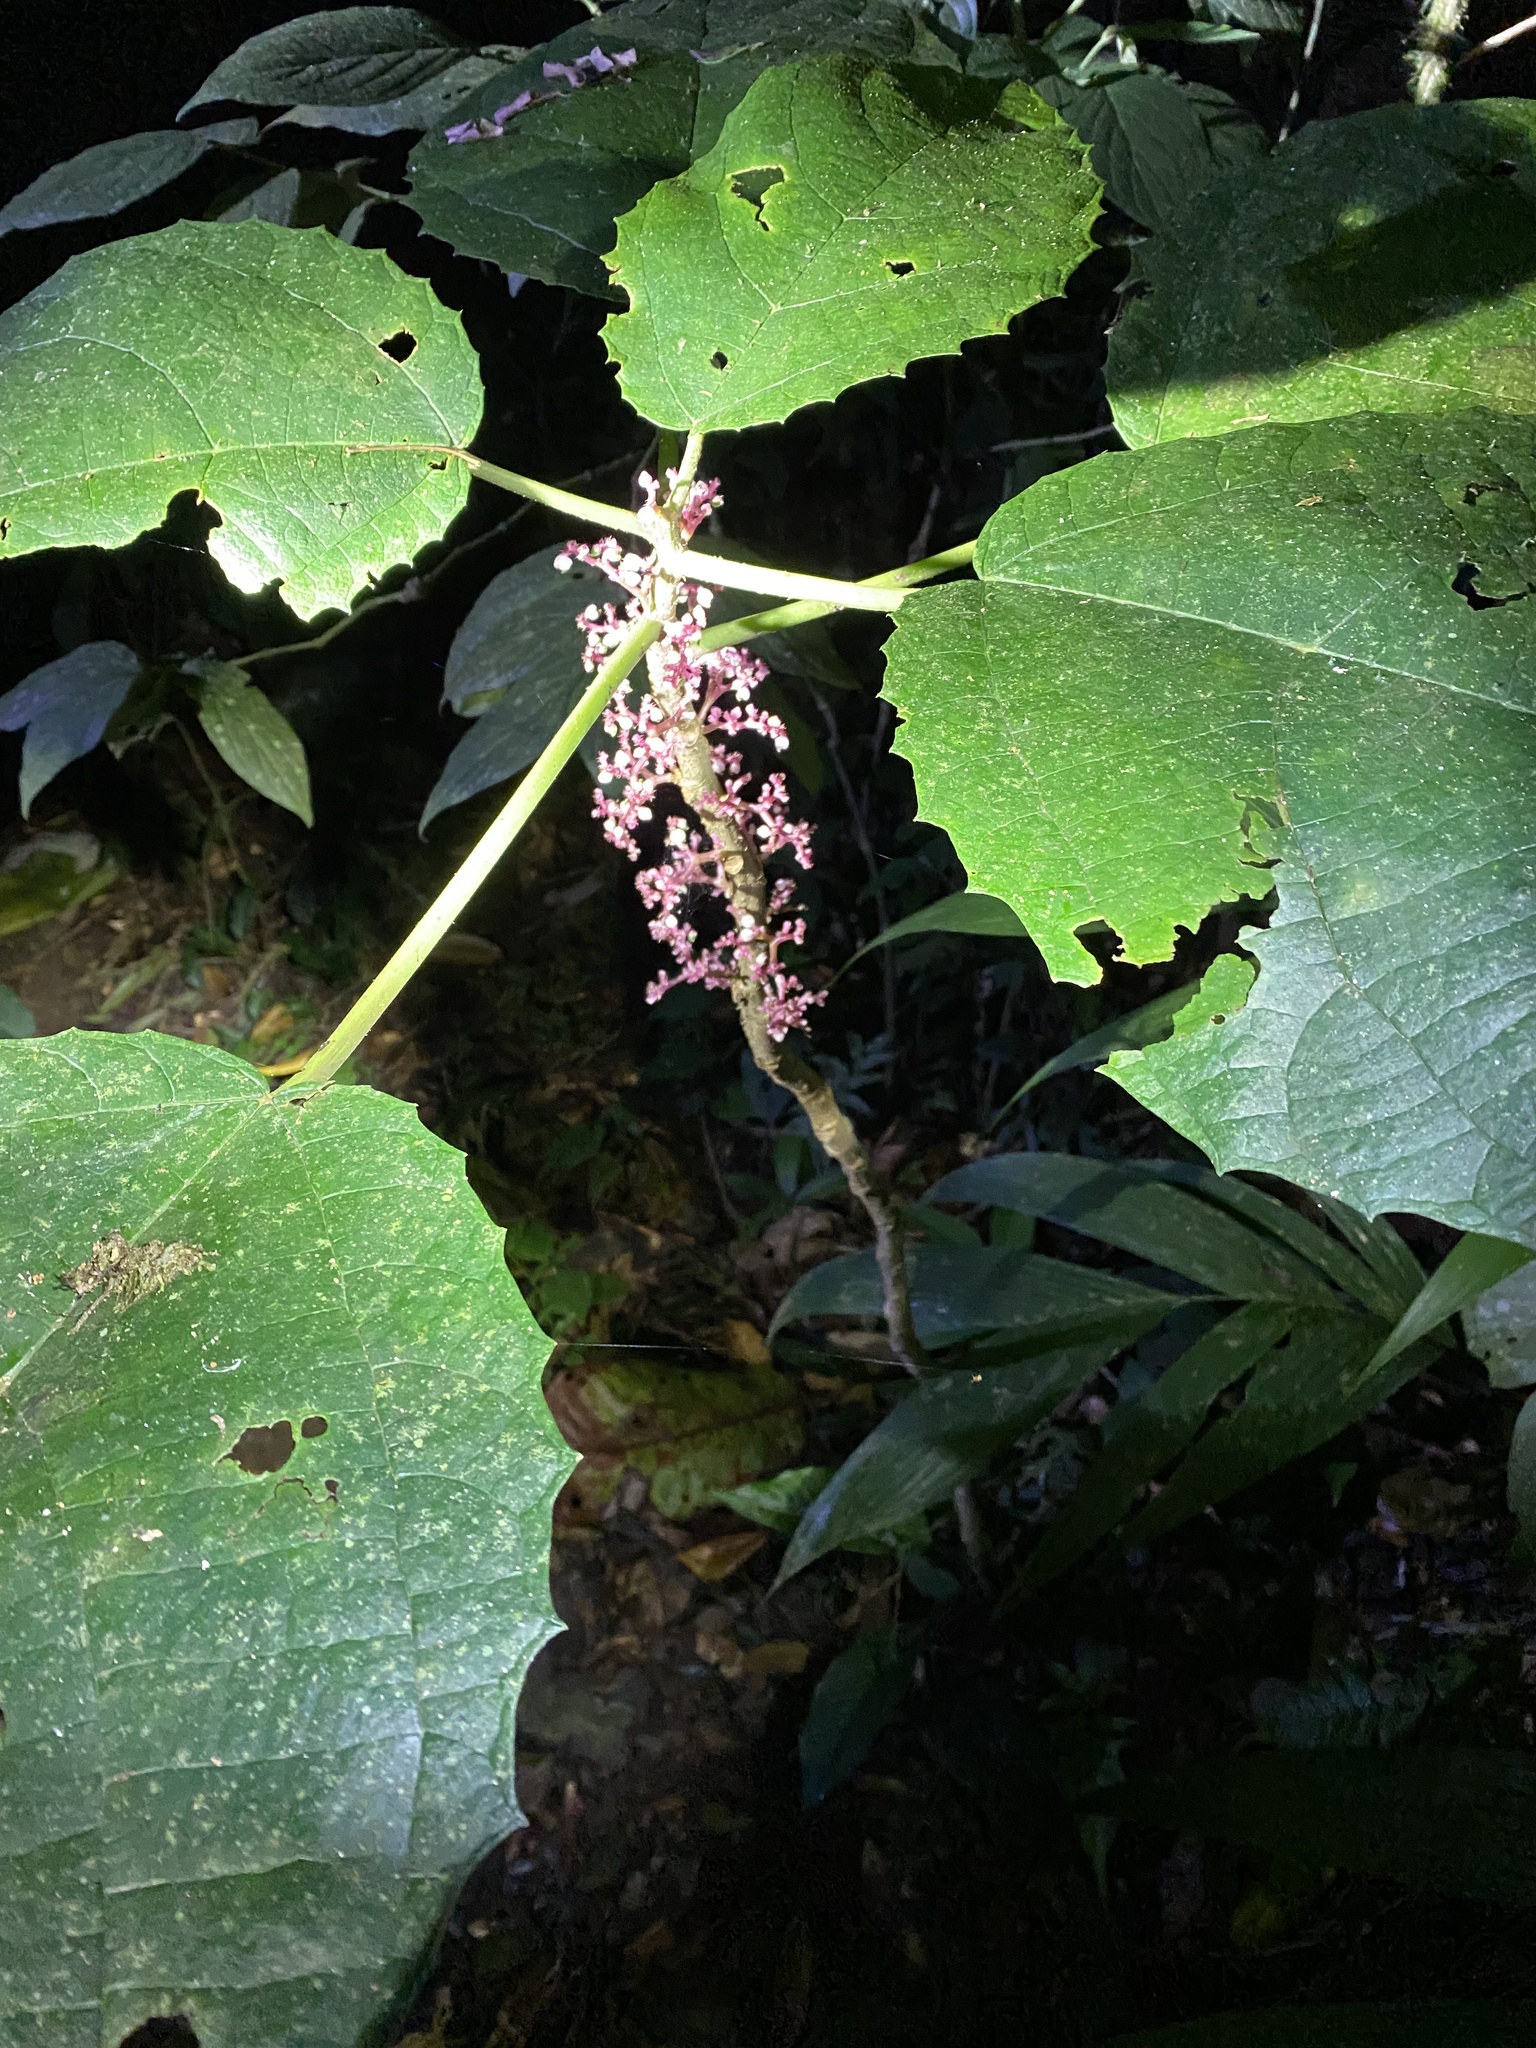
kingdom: Plantae
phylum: Tracheophyta
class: Magnoliopsida
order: Rosales
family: Urticaceae
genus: Urera
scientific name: Urera baccifera
